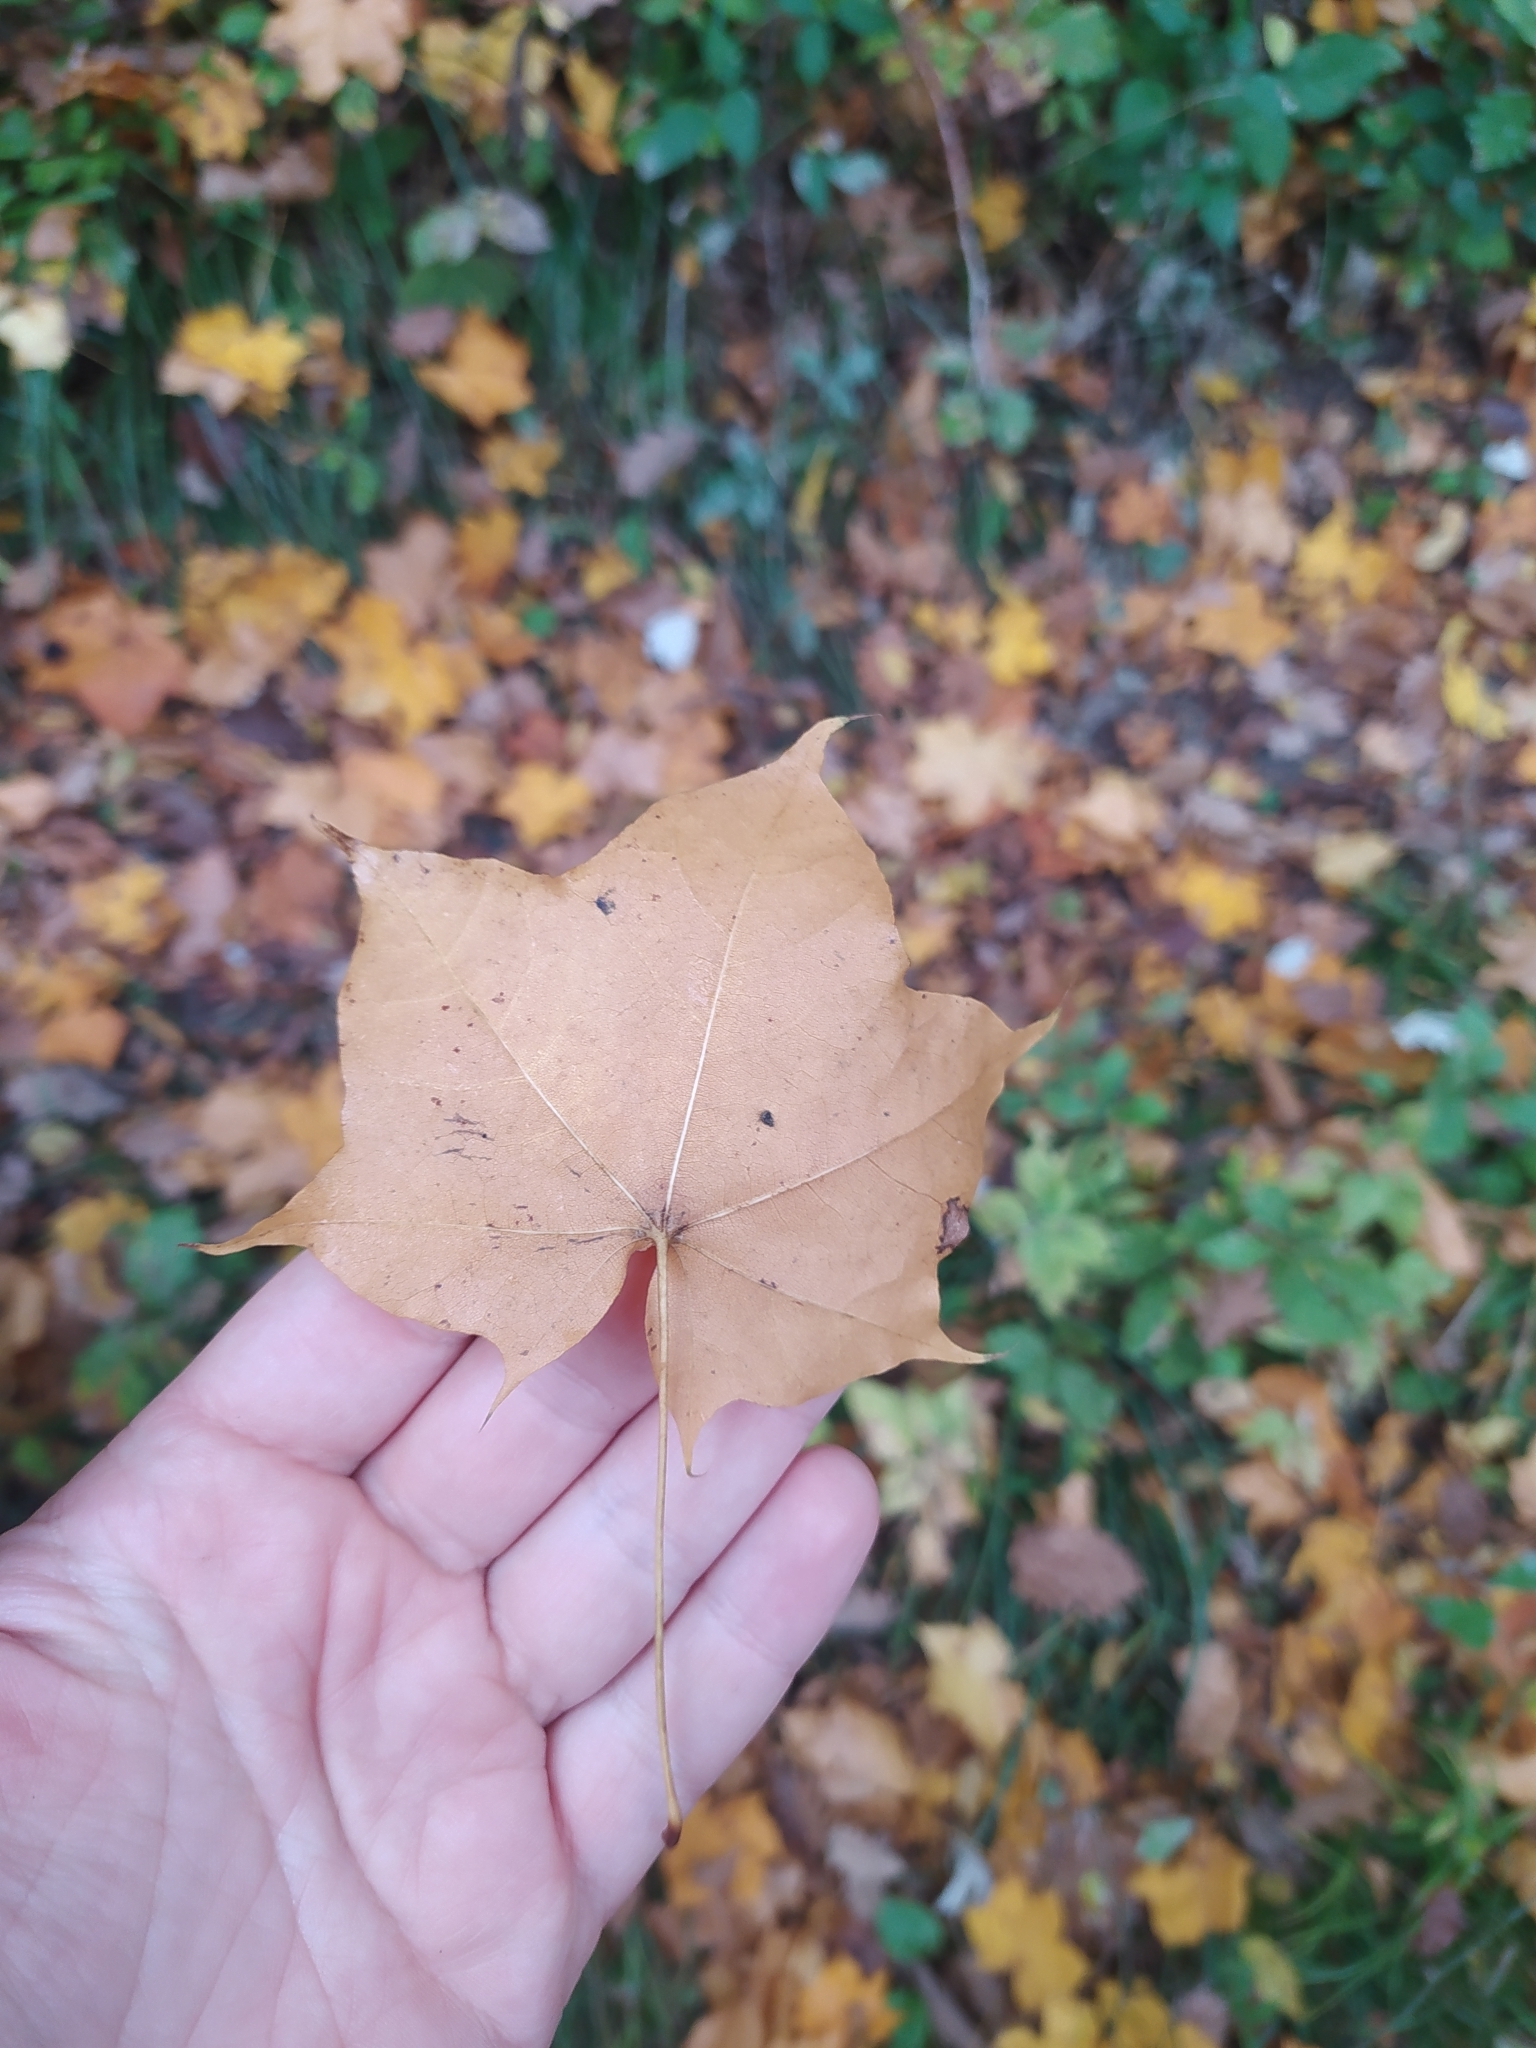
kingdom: Plantae
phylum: Tracheophyta
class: Magnoliopsida
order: Sapindales
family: Sapindaceae
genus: Acer
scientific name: Acer cappadocicum
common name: Cappadocian maple
